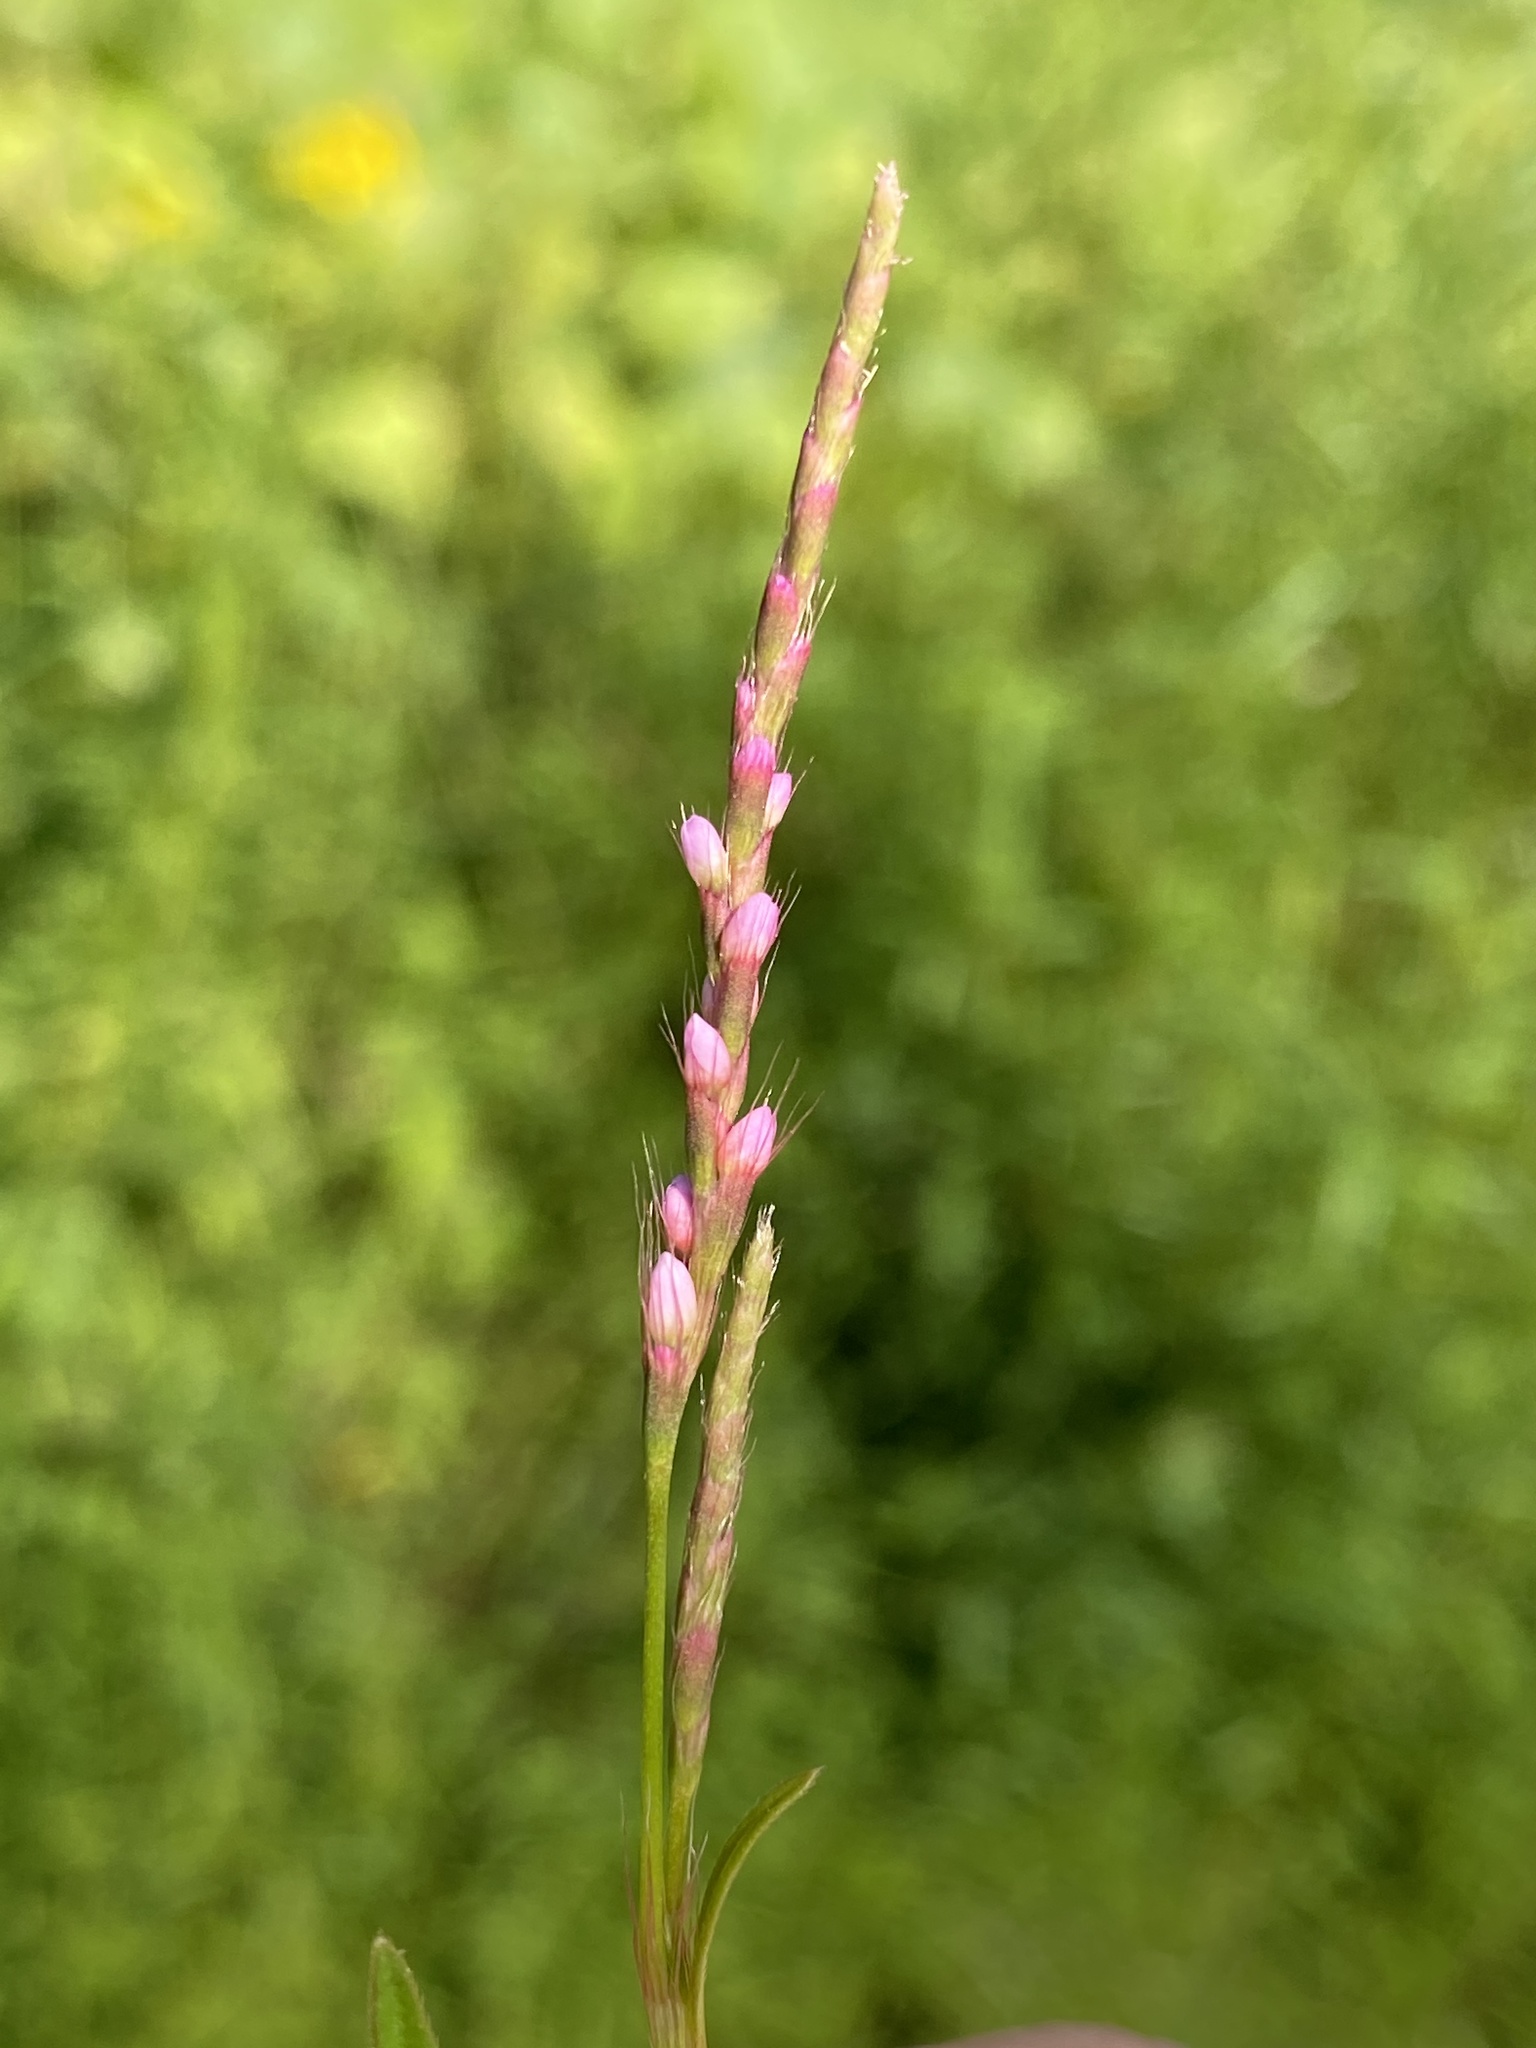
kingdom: Plantae
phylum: Tracheophyta
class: Magnoliopsida
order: Caryophyllales
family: Polygonaceae
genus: Persicaria
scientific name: Persicaria longiseta
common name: Bristly lady's-thumb
